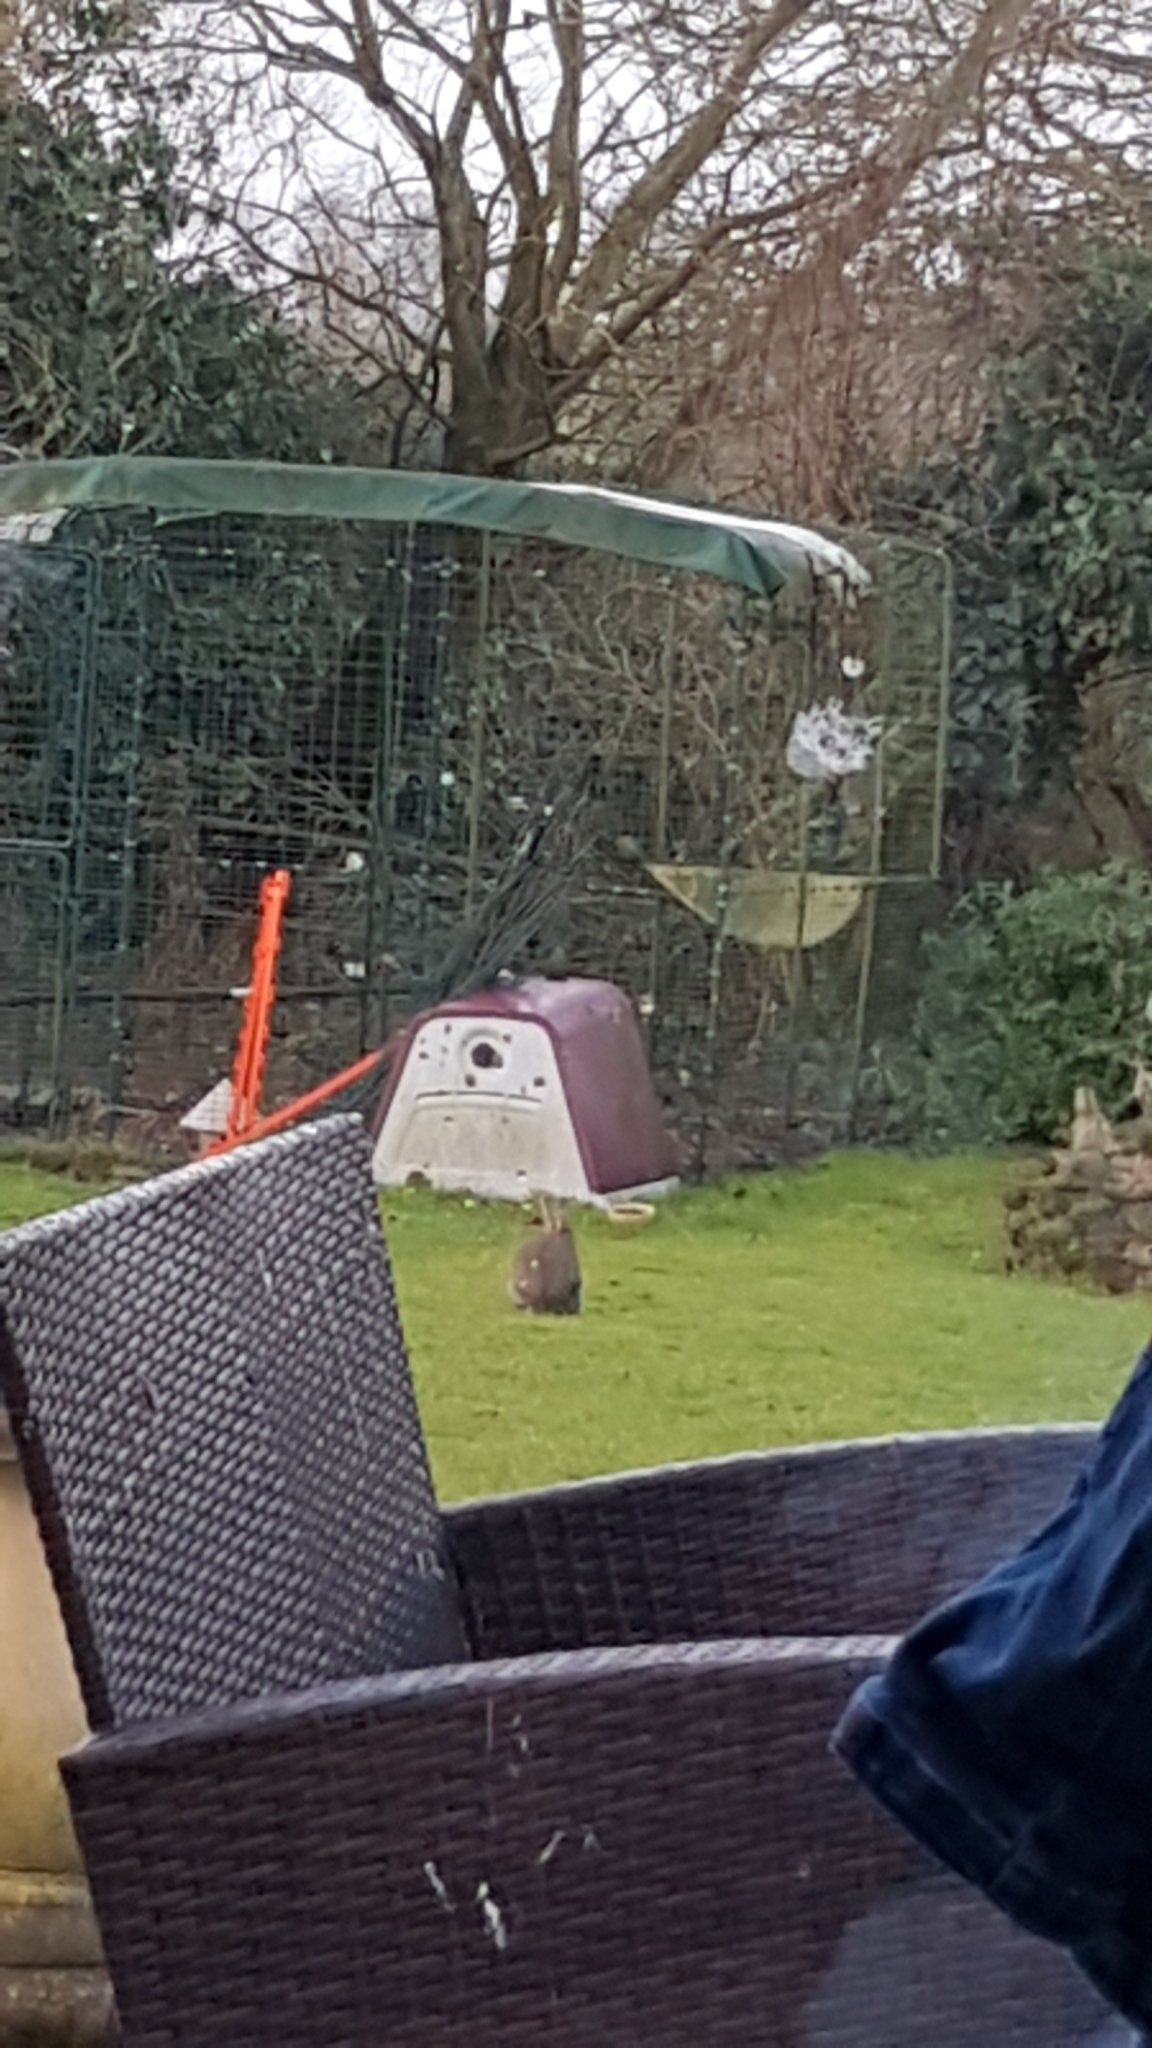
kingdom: Animalia
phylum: Chordata
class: Mammalia
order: Lagomorpha
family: Leporidae
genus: Oryctolagus
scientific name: Oryctolagus cuniculus
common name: European rabbit
